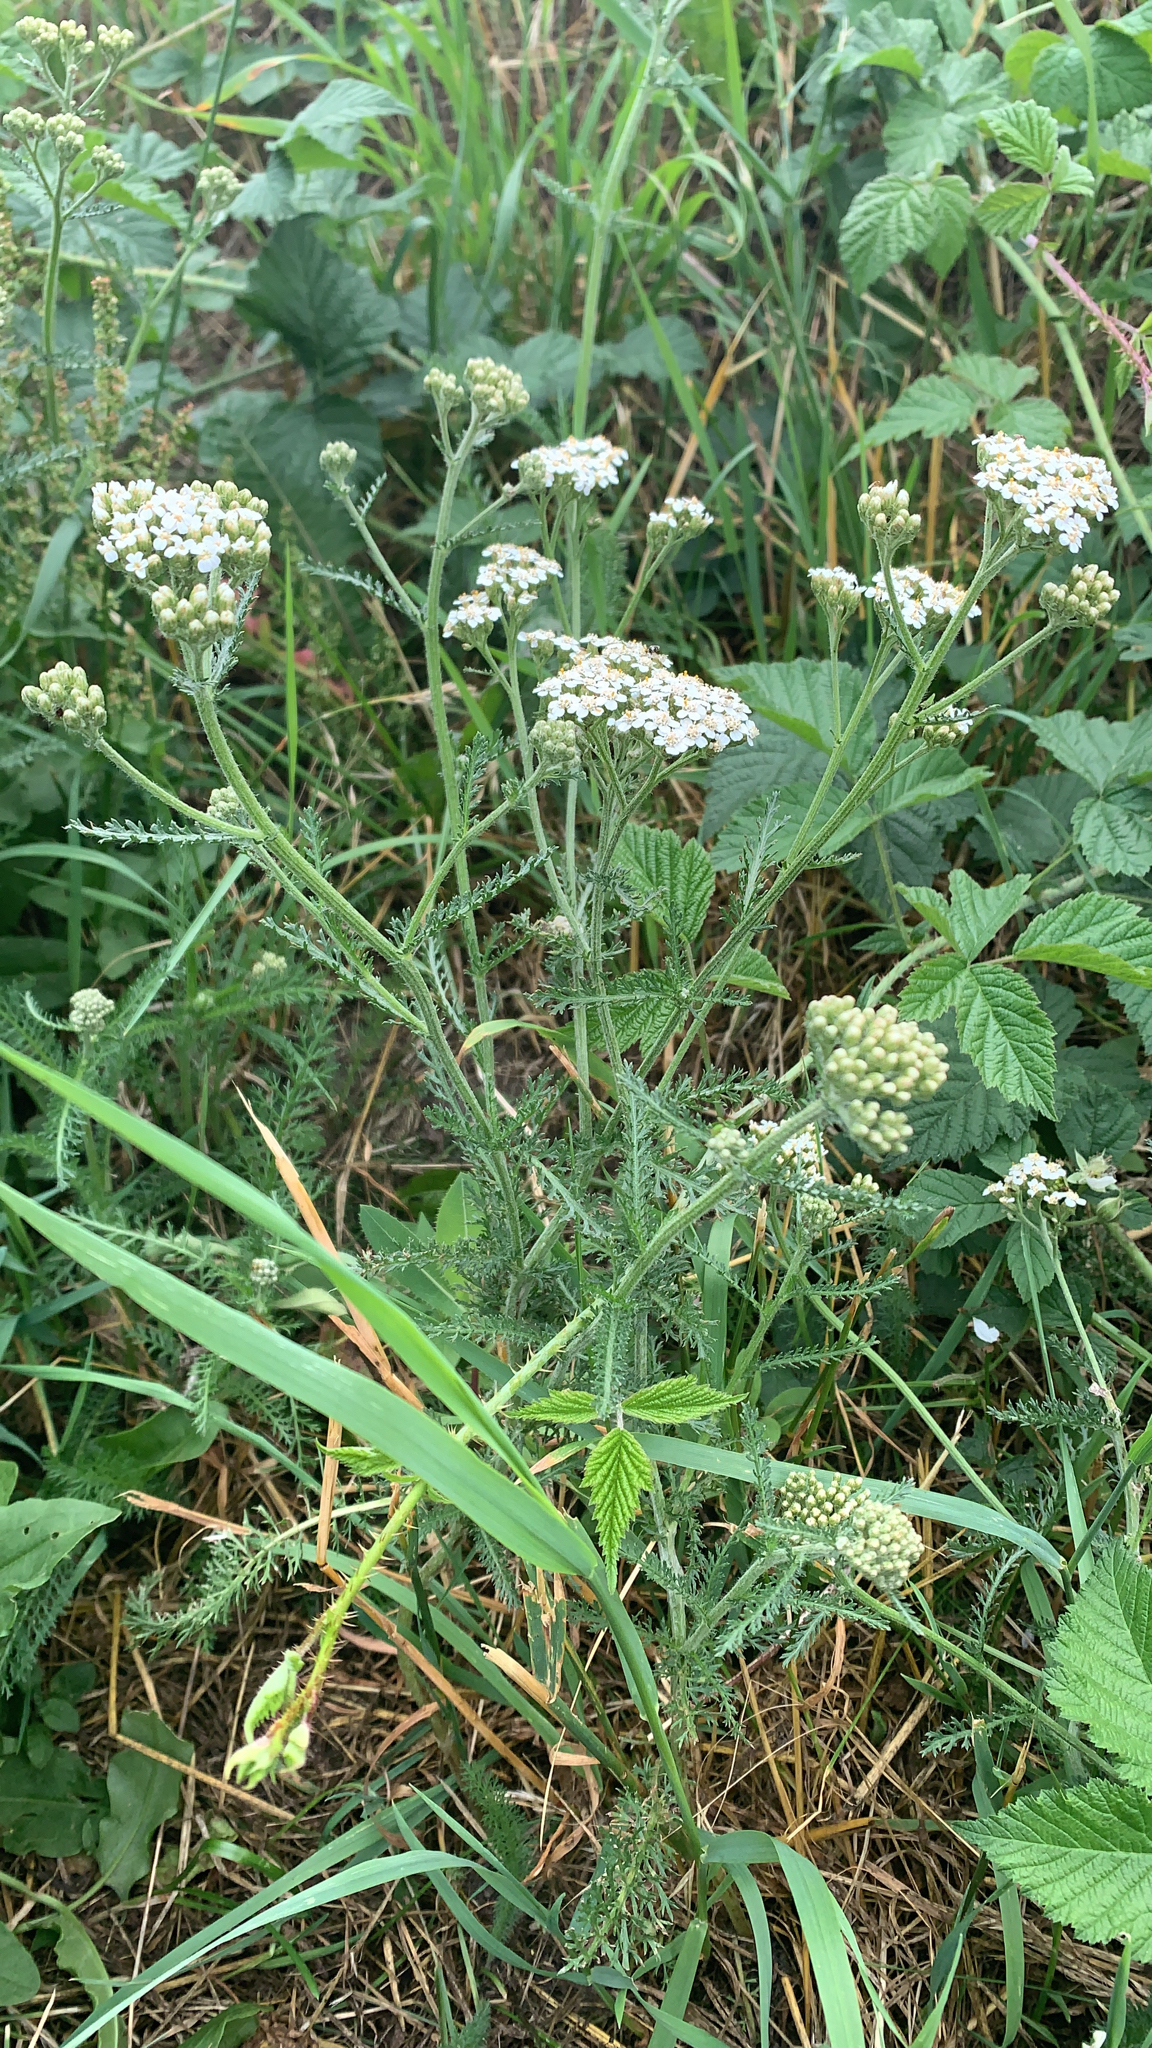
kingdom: Plantae
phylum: Tracheophyta
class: Magnoliopsida
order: Asterales
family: Asteraceae
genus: Achillea
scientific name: Achillea millefolium
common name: Yarrow
